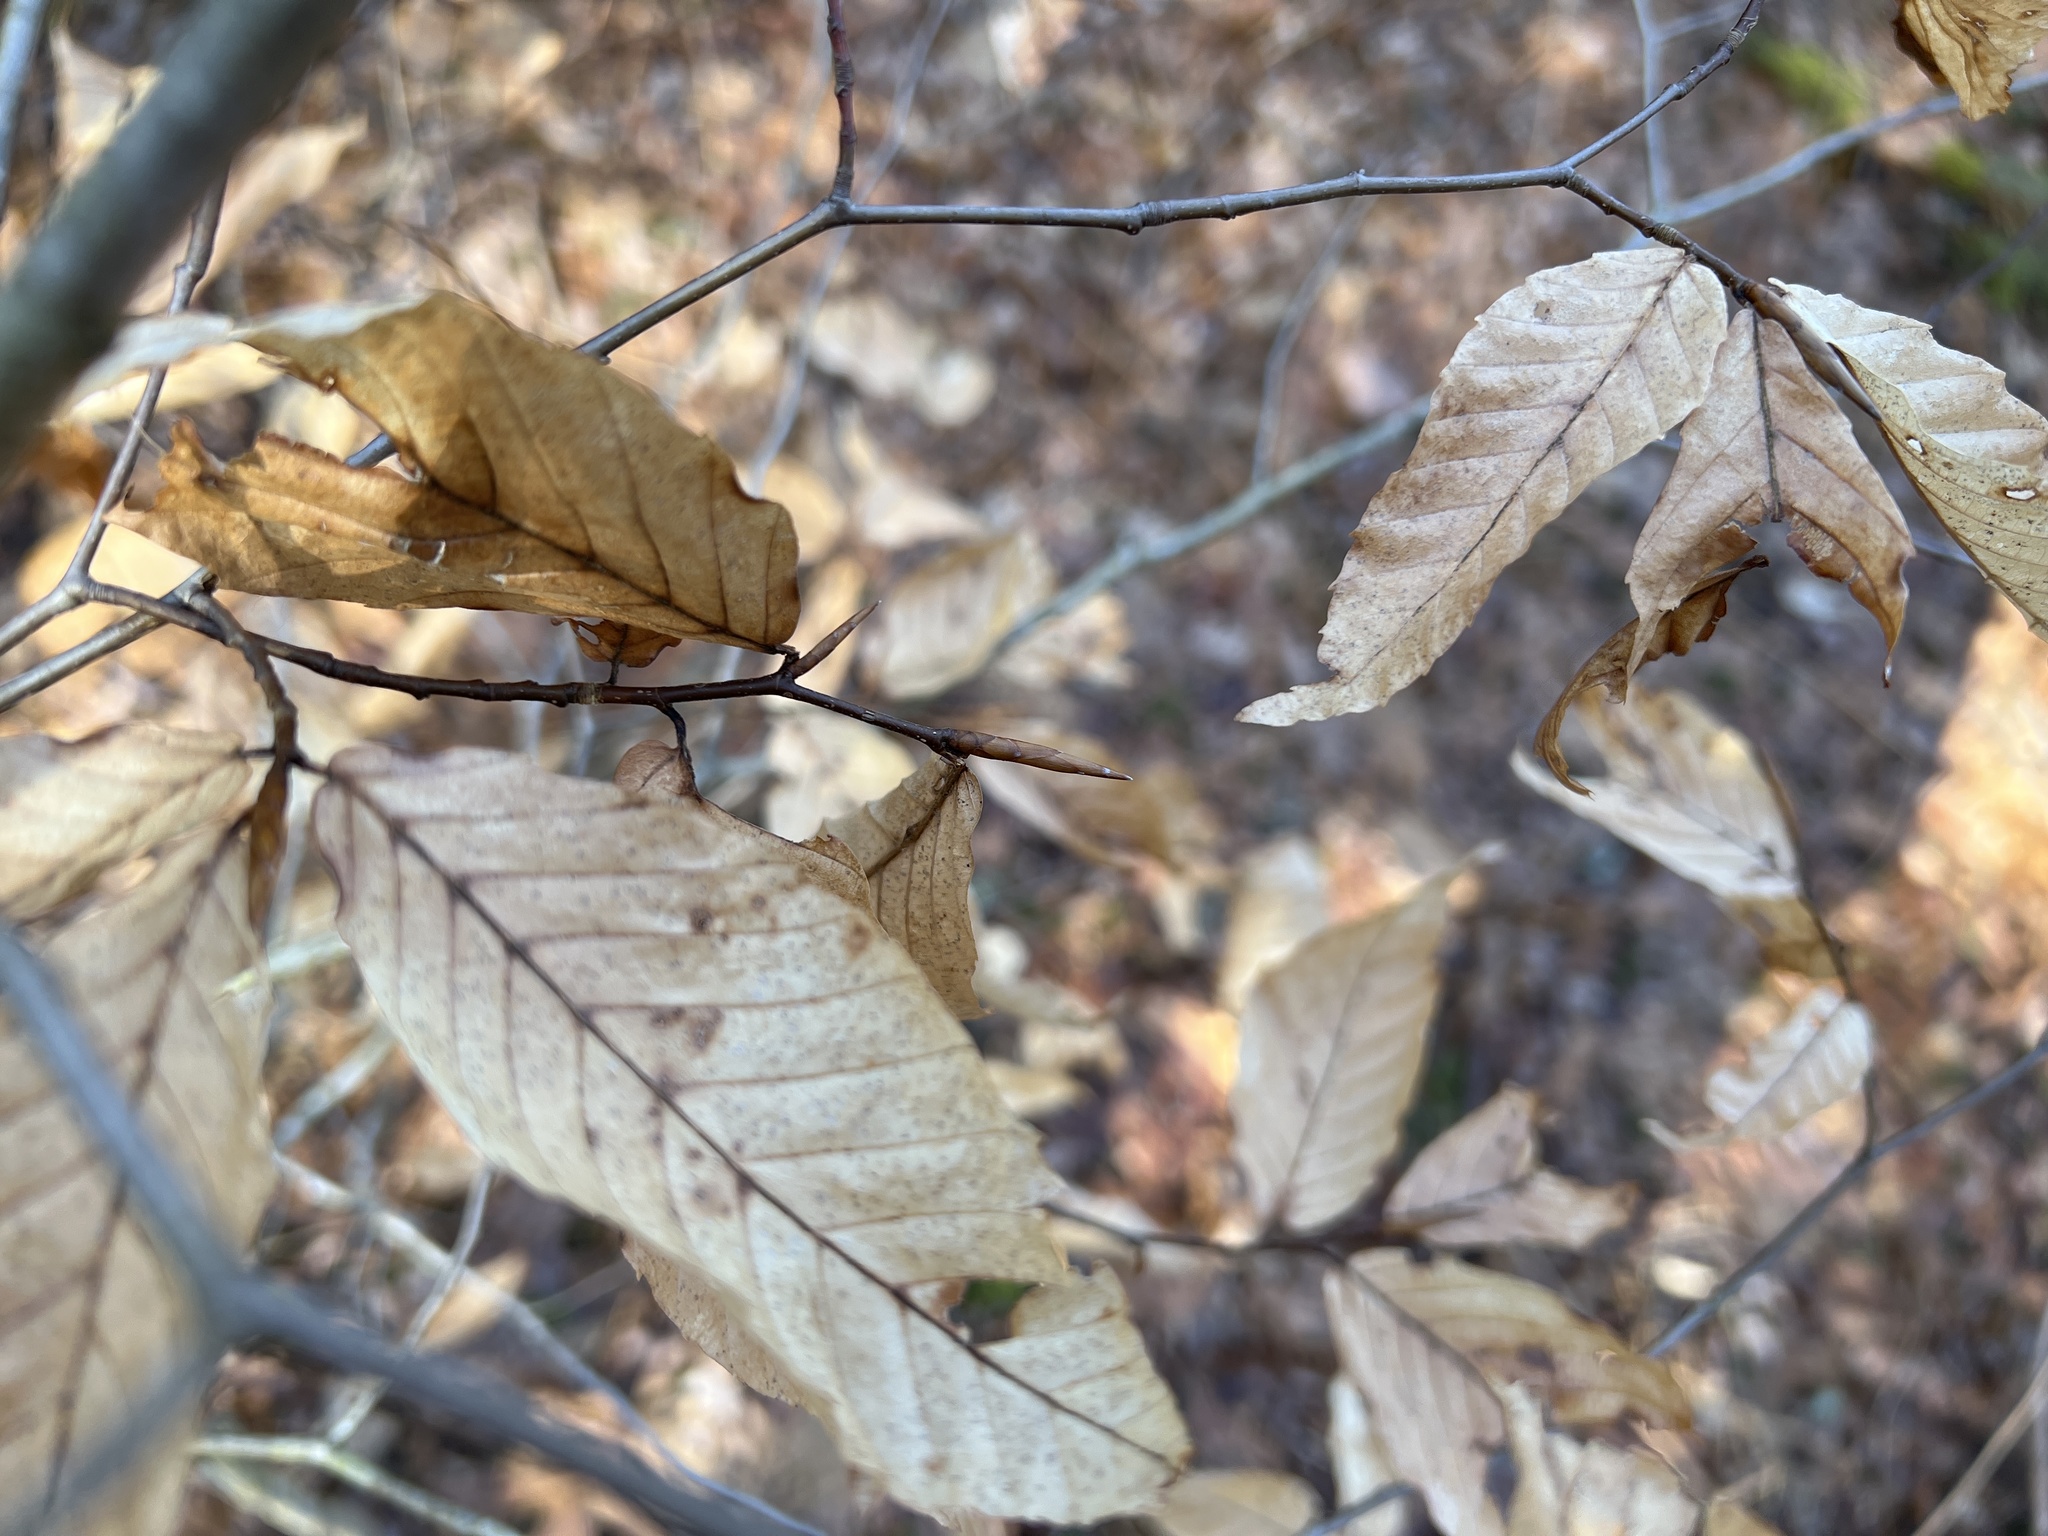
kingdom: Plantae
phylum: Tracheophyta
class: Magnoliopsida
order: Fagales
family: Fagaceae
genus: Fagus
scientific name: Fagus grandifolia
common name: American beech
